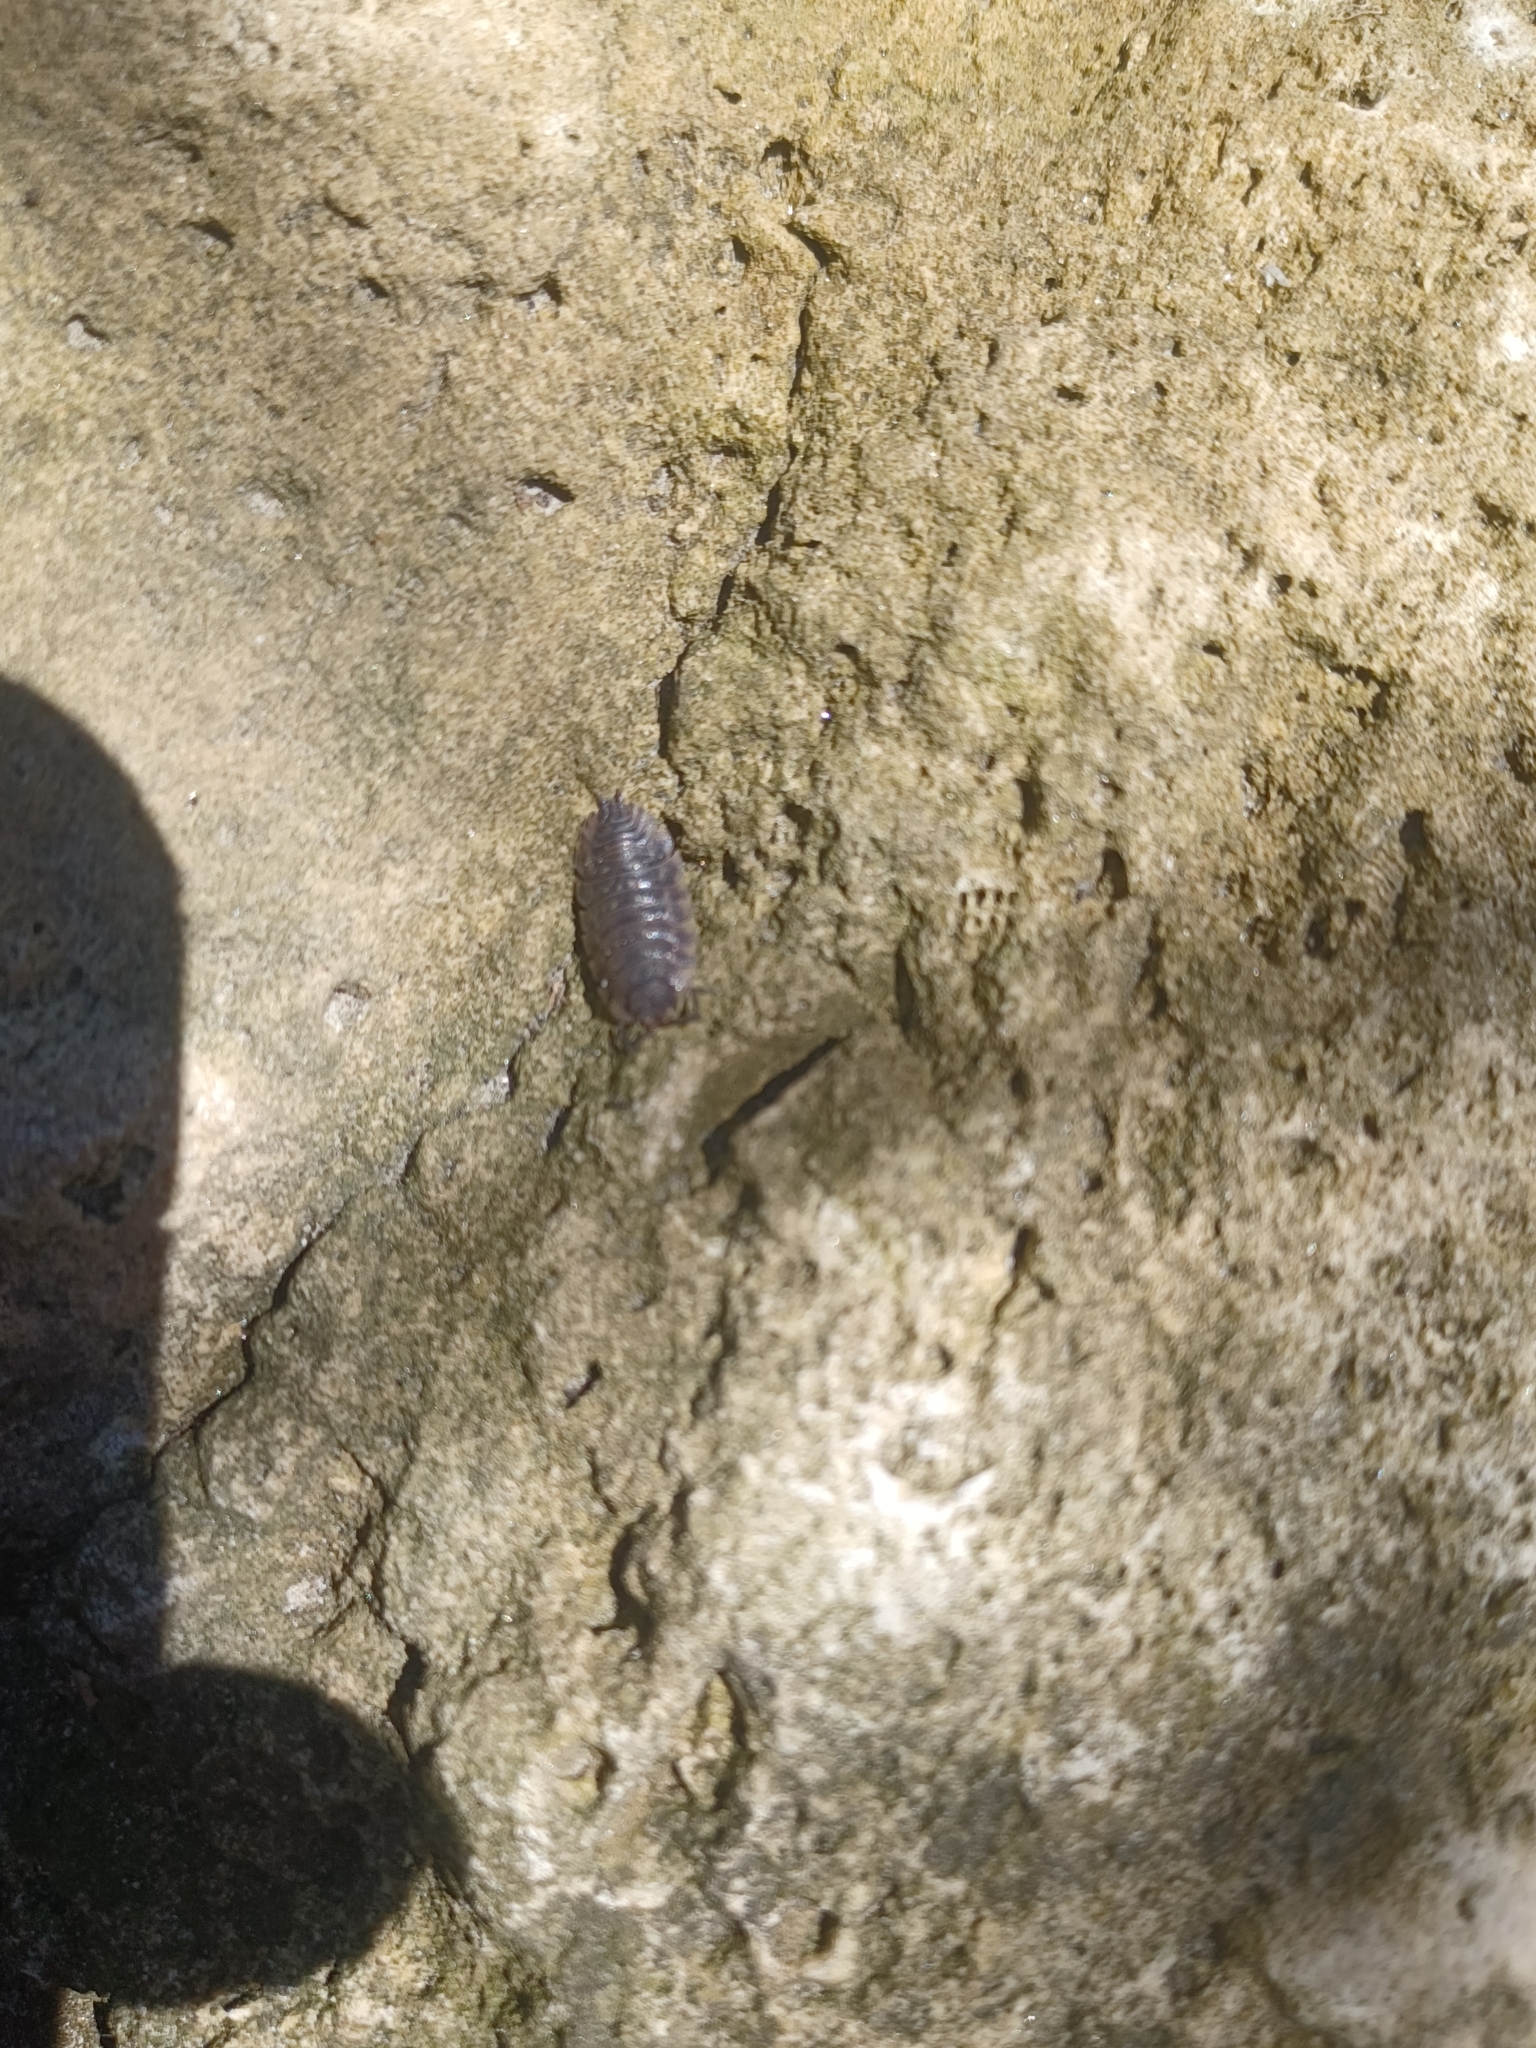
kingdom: Animalia
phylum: Arthropoda
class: Malacostraca
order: Isopoda
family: Porcellionidae
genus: Porcellio
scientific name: Porcellio scaber
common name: Common rough woodlouse
